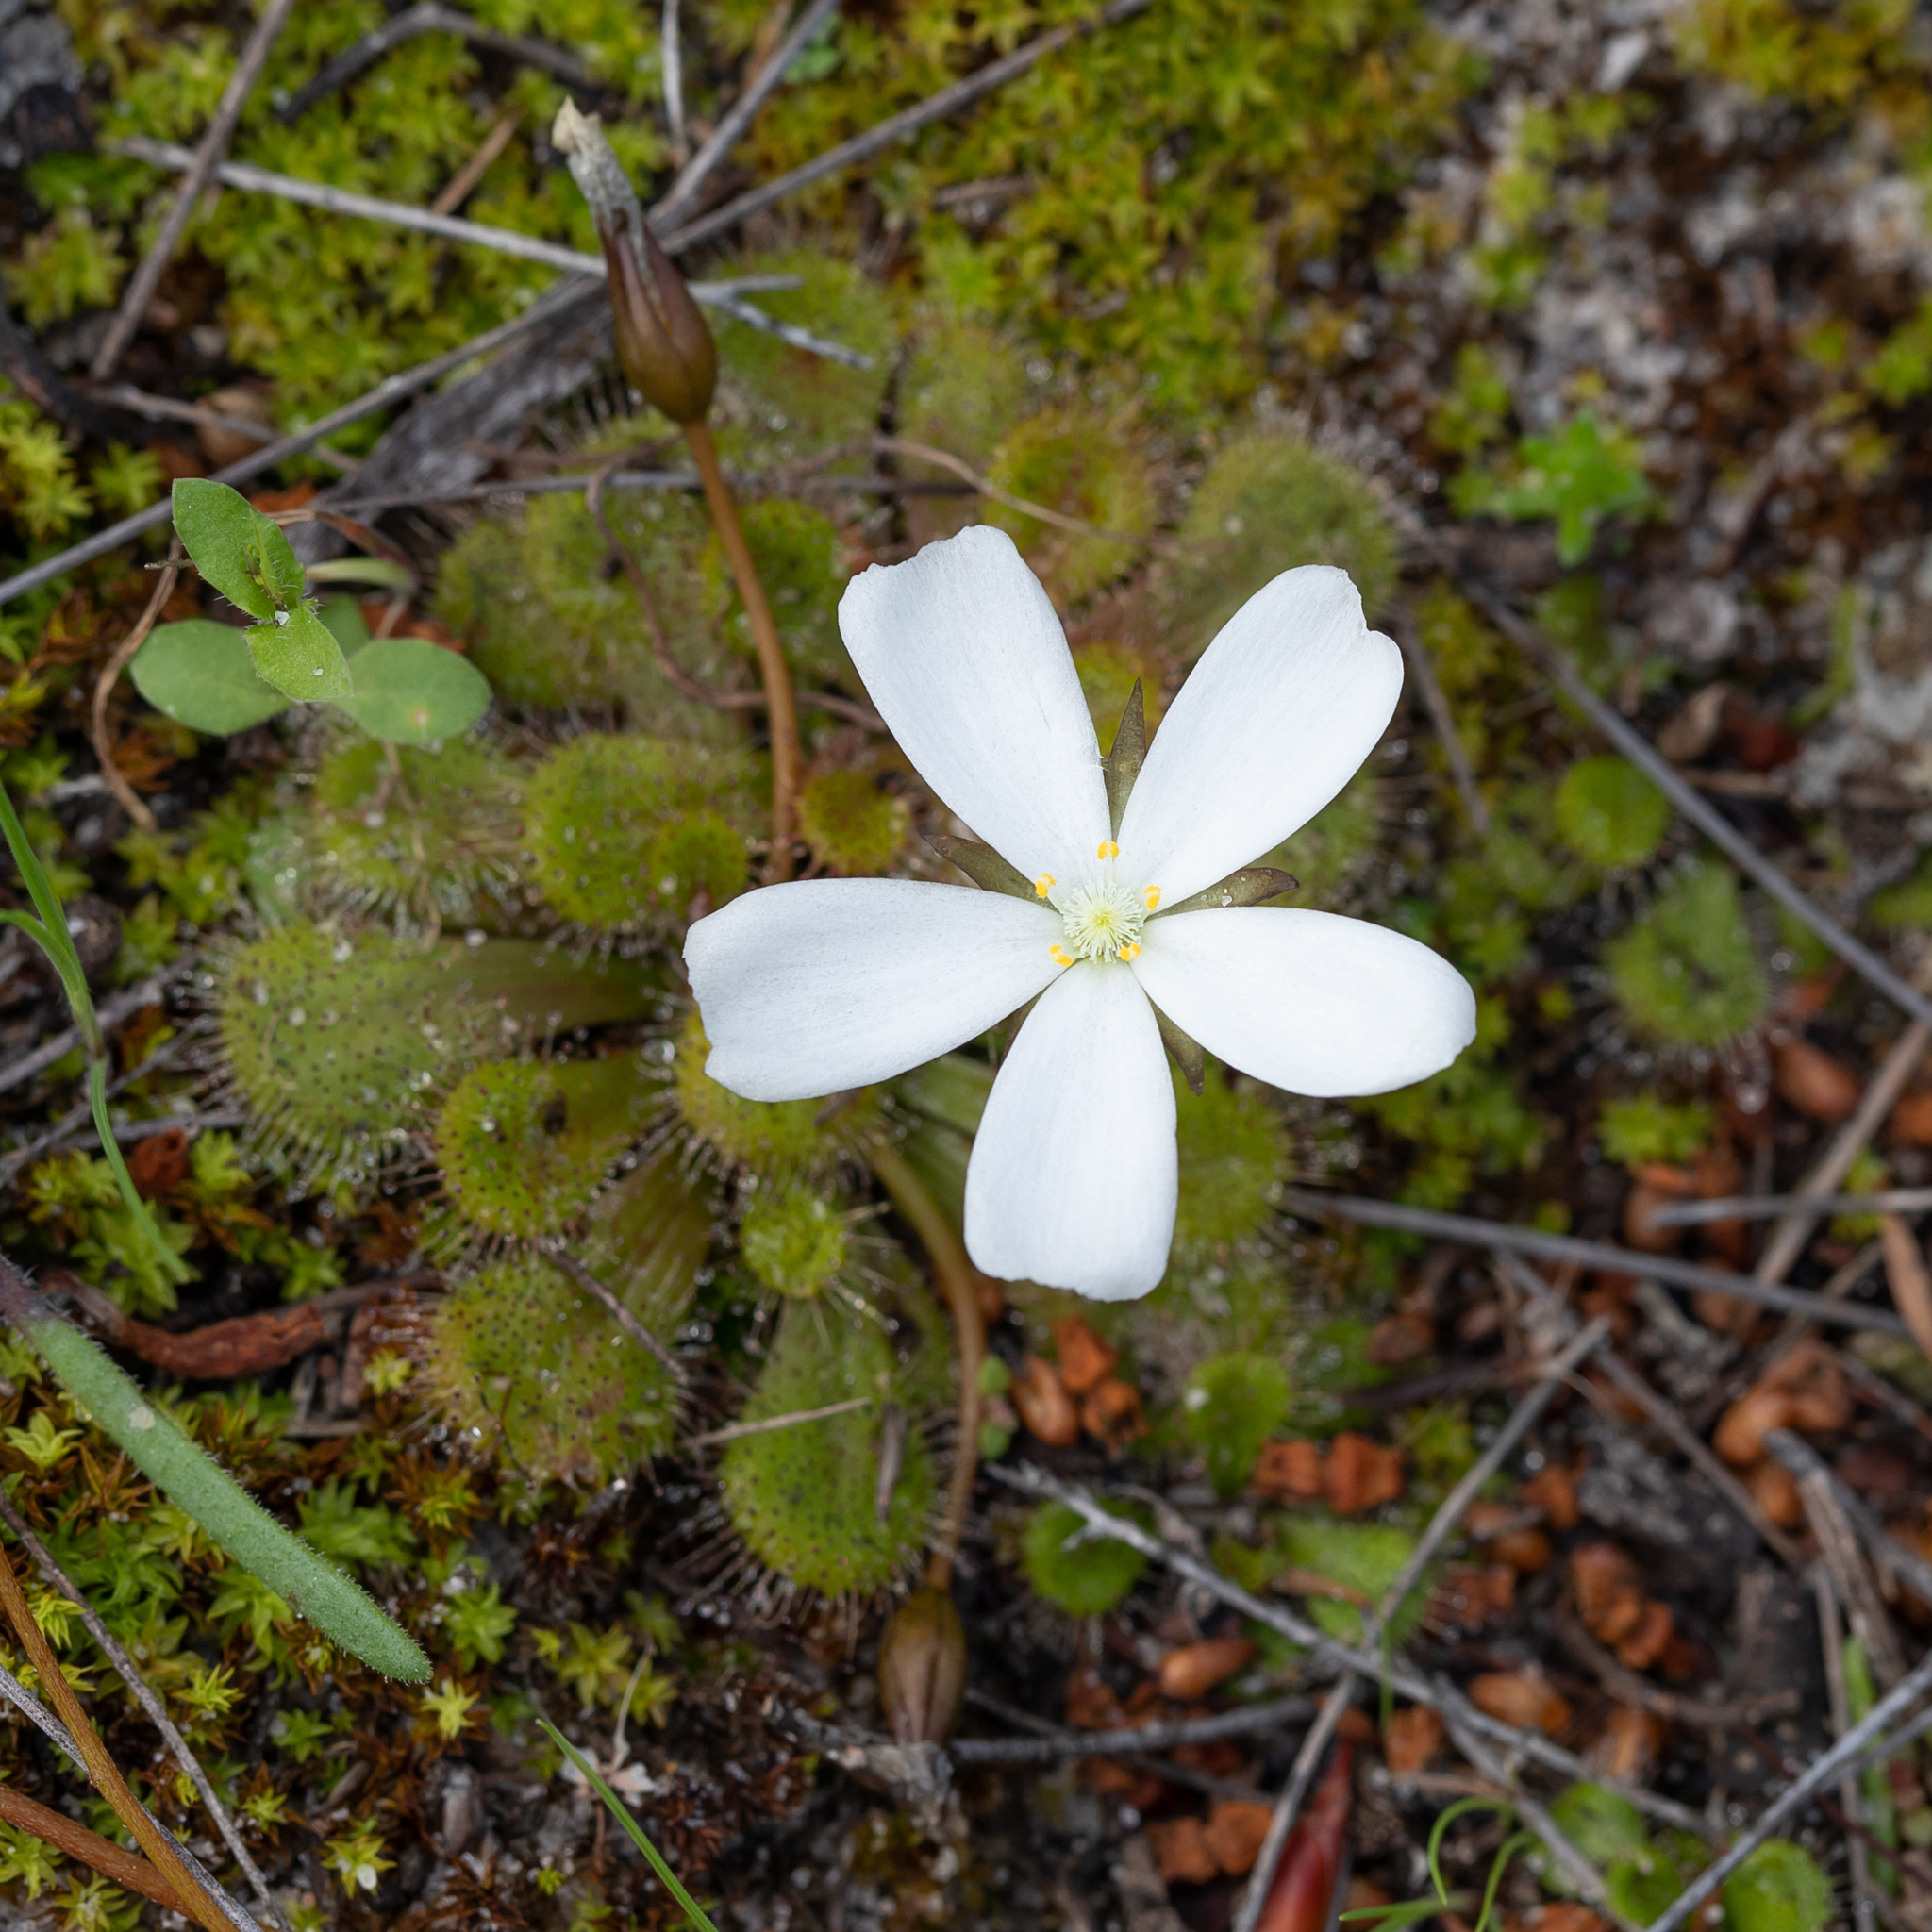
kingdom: Plantae
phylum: Tracheophyta
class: Magnoliopsida
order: Caryophyllales
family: Droseraceae
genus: Drosera
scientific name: Drosera aberrans
